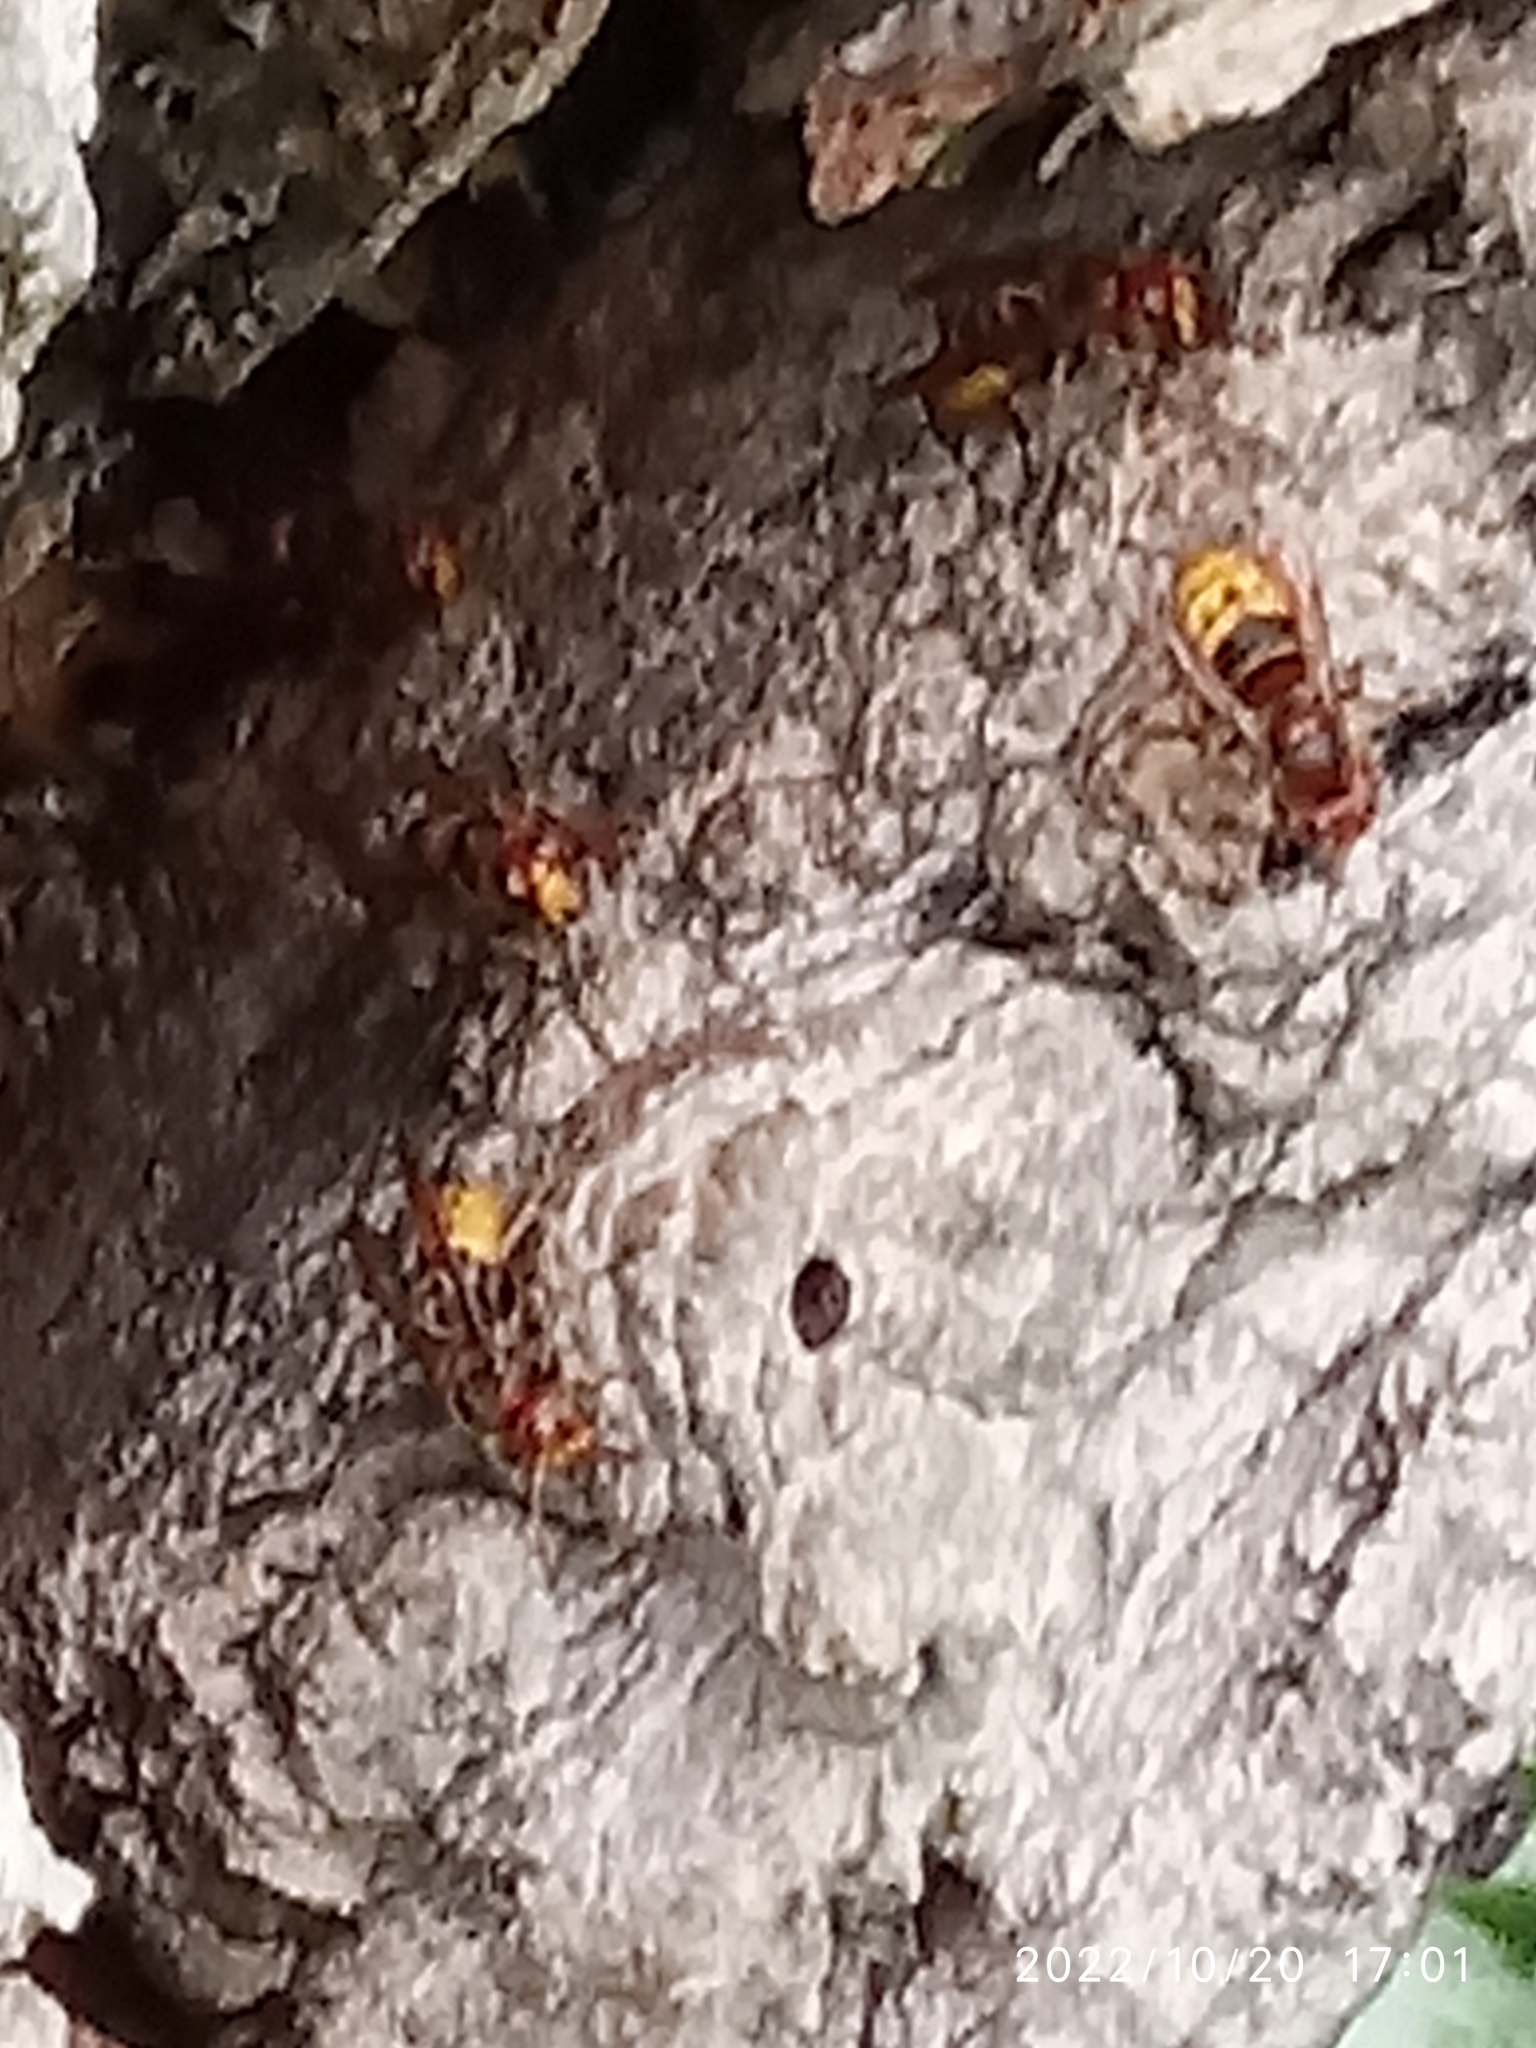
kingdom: Animalia
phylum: Arthropoda
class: Insecta
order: Hymenoptera
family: Vespidae
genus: Vespa
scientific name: Vespa crabro
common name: Hornet
